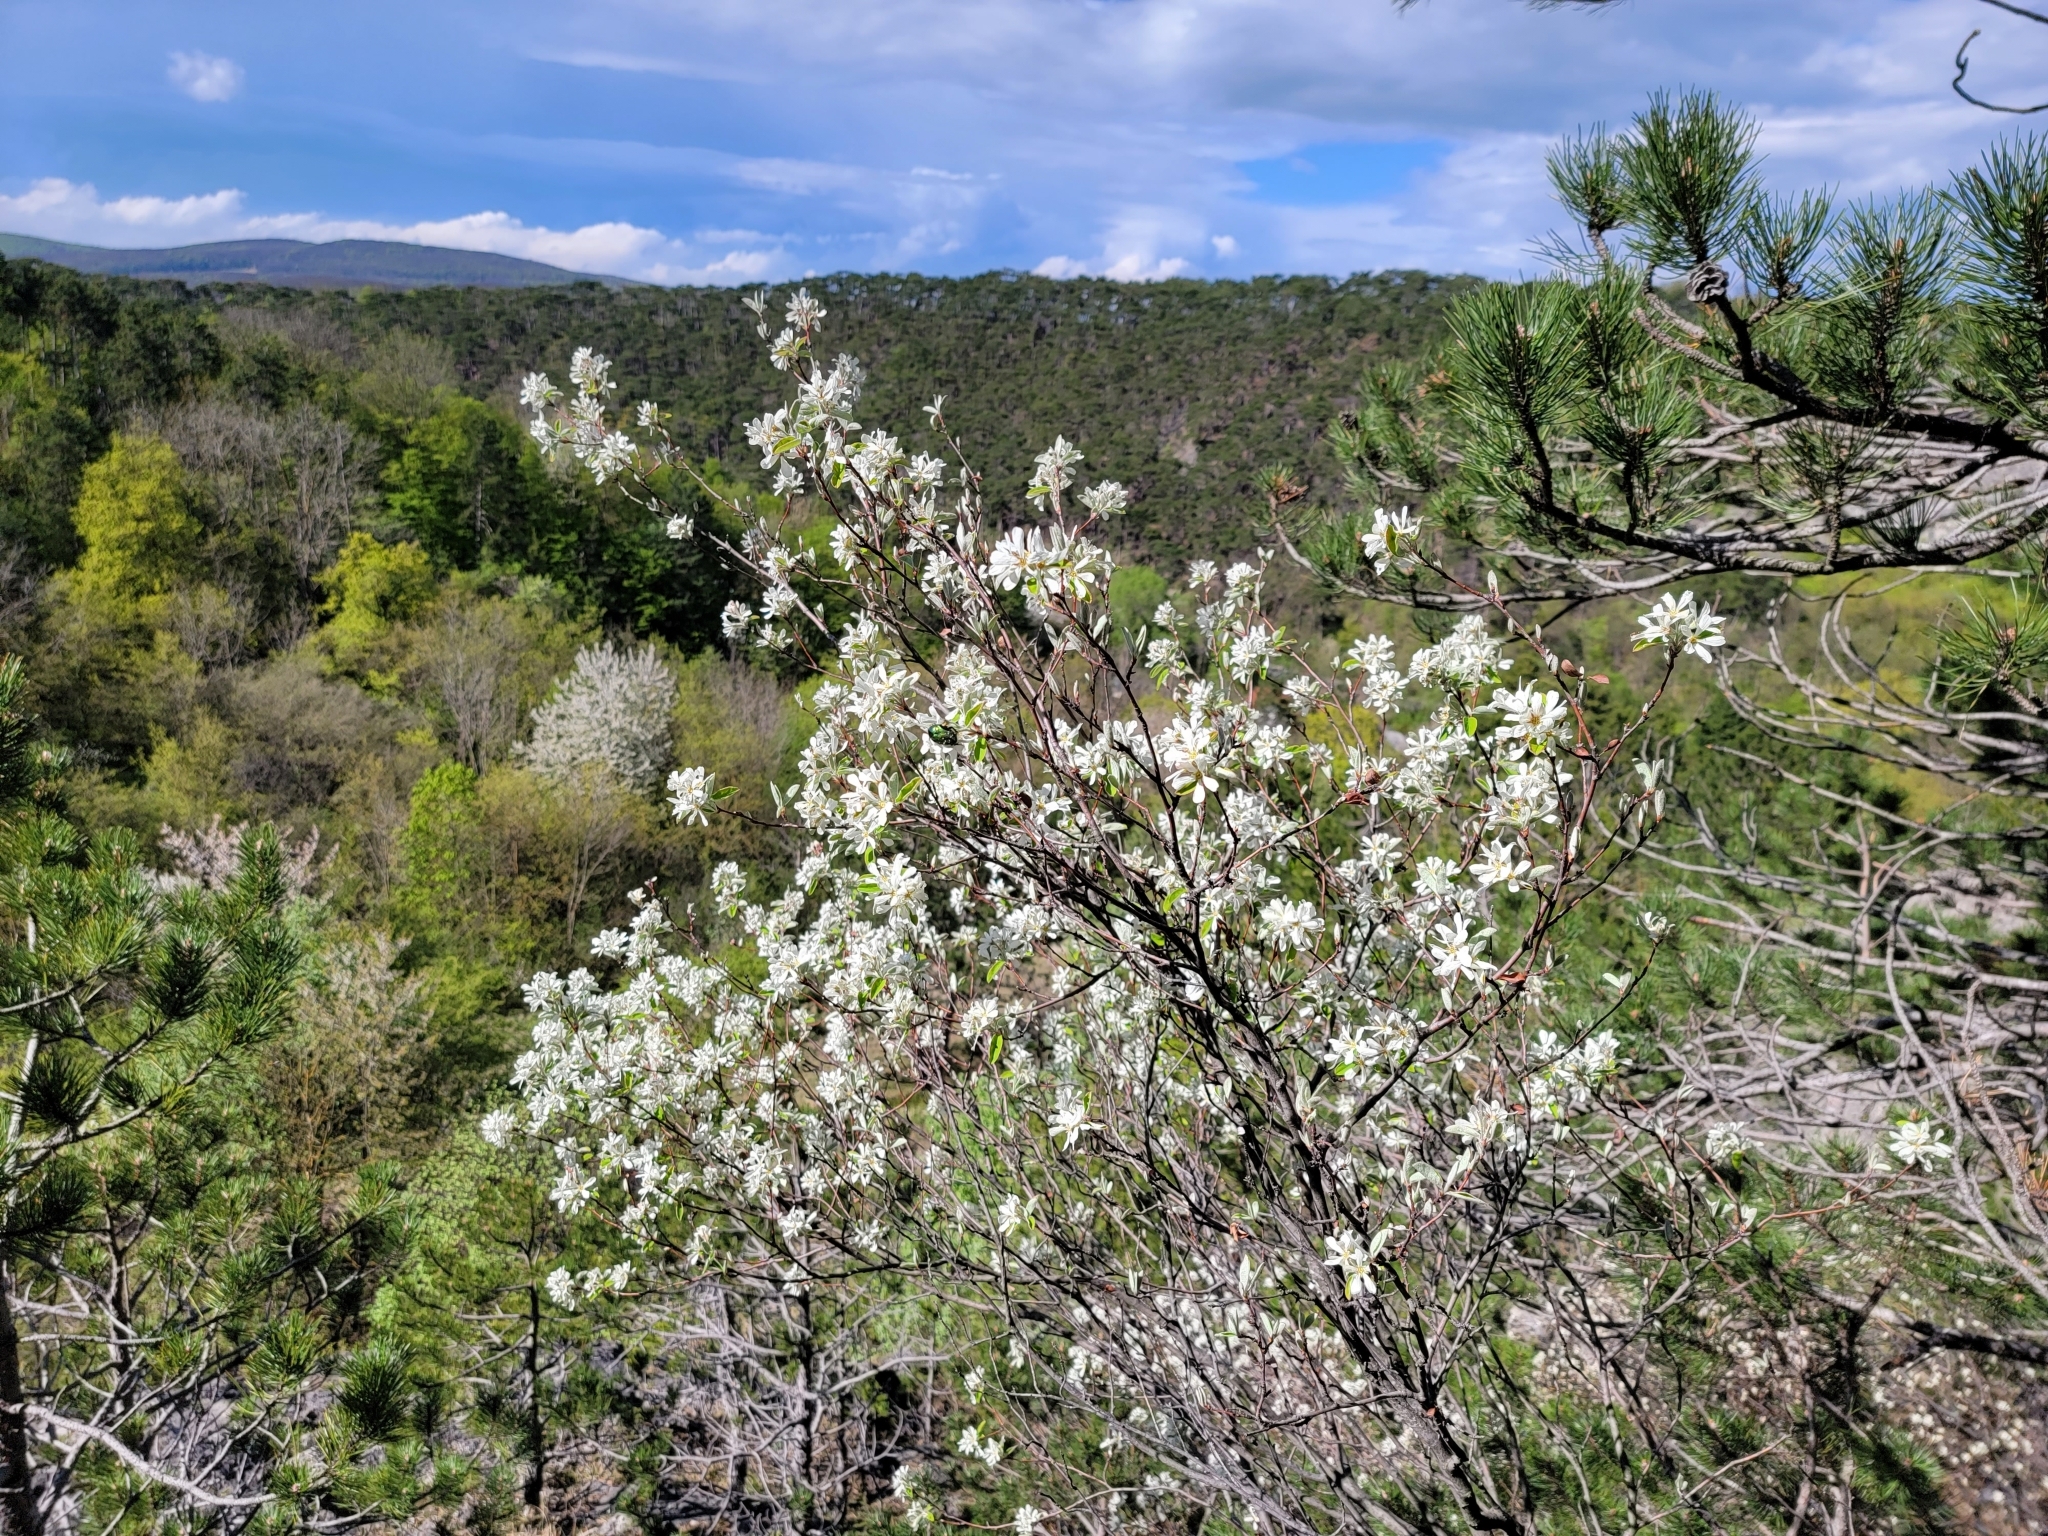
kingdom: Plantae
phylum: Tracheophyta
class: Magnoliopsida
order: Rosales
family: Rosaceae
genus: Amelanchier
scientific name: Amelanchier ovalis
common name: Serviceberry
